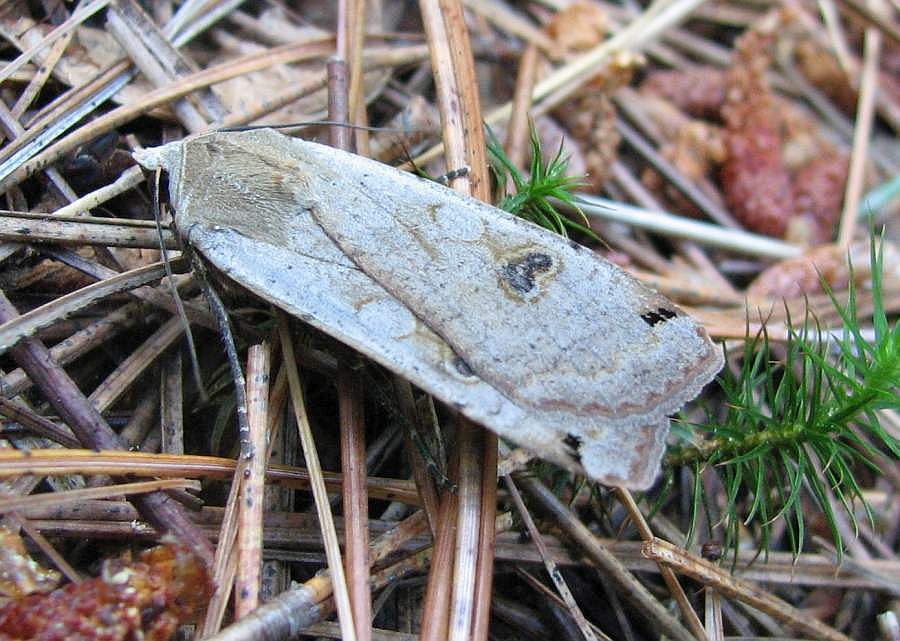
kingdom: Animalia
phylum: Arthropoda
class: Insecta
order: Lepidoptera
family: Noctuidae
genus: Noctua
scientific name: Noctua pronuba
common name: Large yellow underwing
